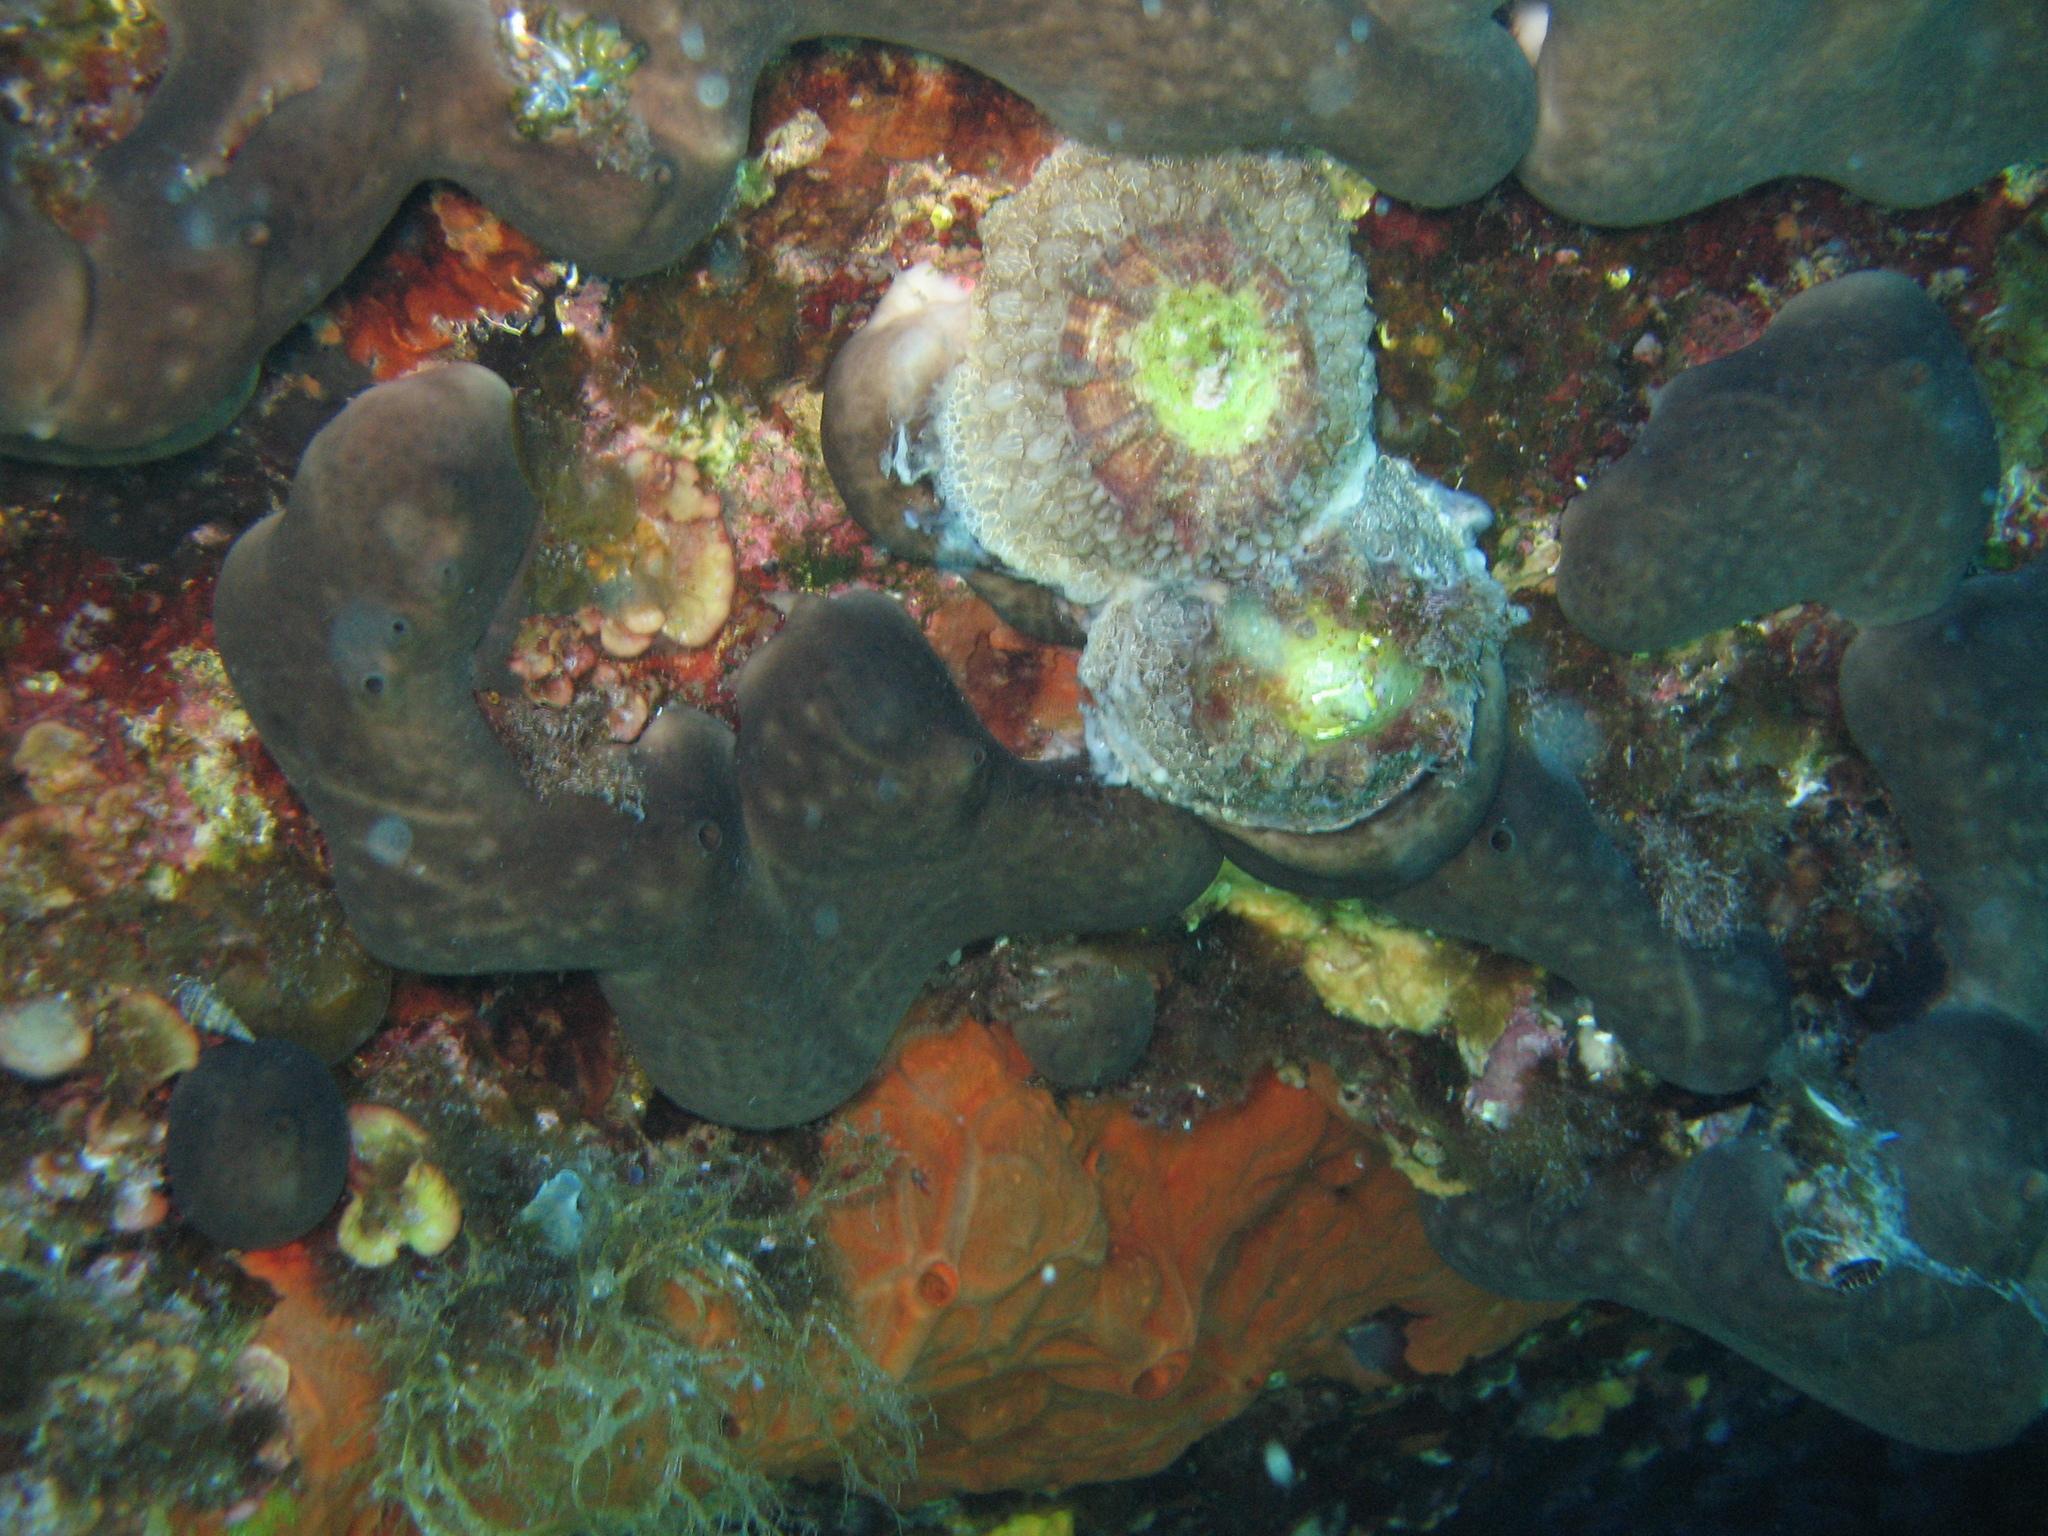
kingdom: Animalia
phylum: Mollusca
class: Gastropoda
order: Umbraculida
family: Umbraculidae
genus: Umbraculum
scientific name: Umbraculum umbraculum
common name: Atlantic umbrella slug
